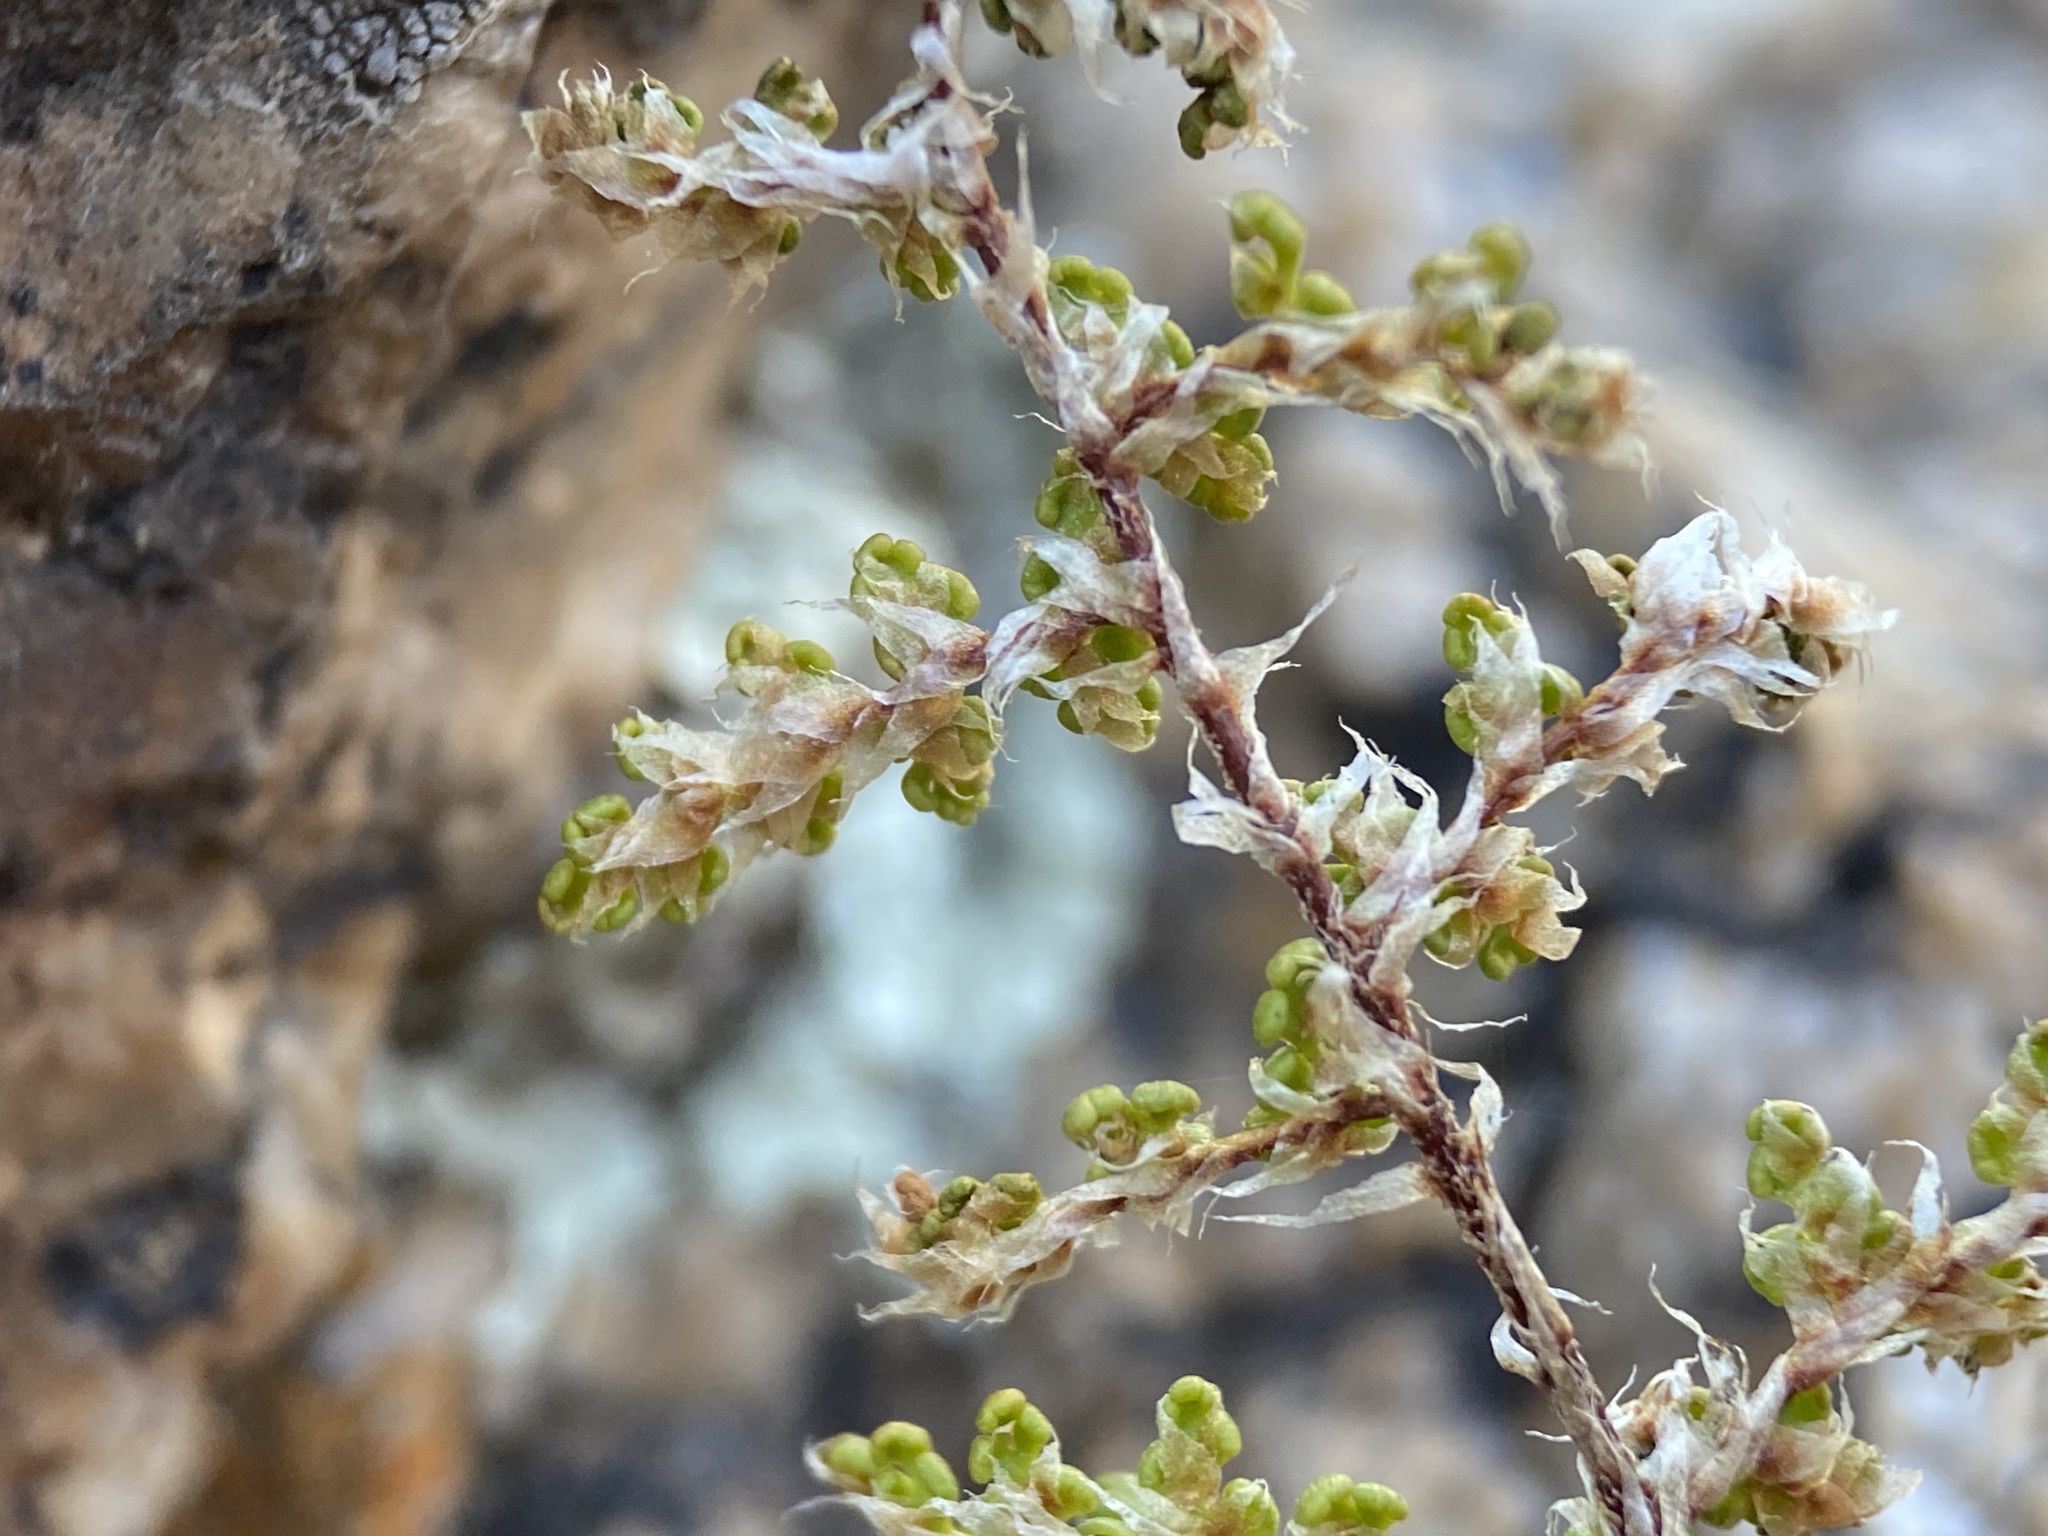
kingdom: Plantae
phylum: Tracheophyta
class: Polypodiopsida
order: Polypodiales
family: Pteridaceae
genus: Myriopteris
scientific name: Myriopteris covillei
